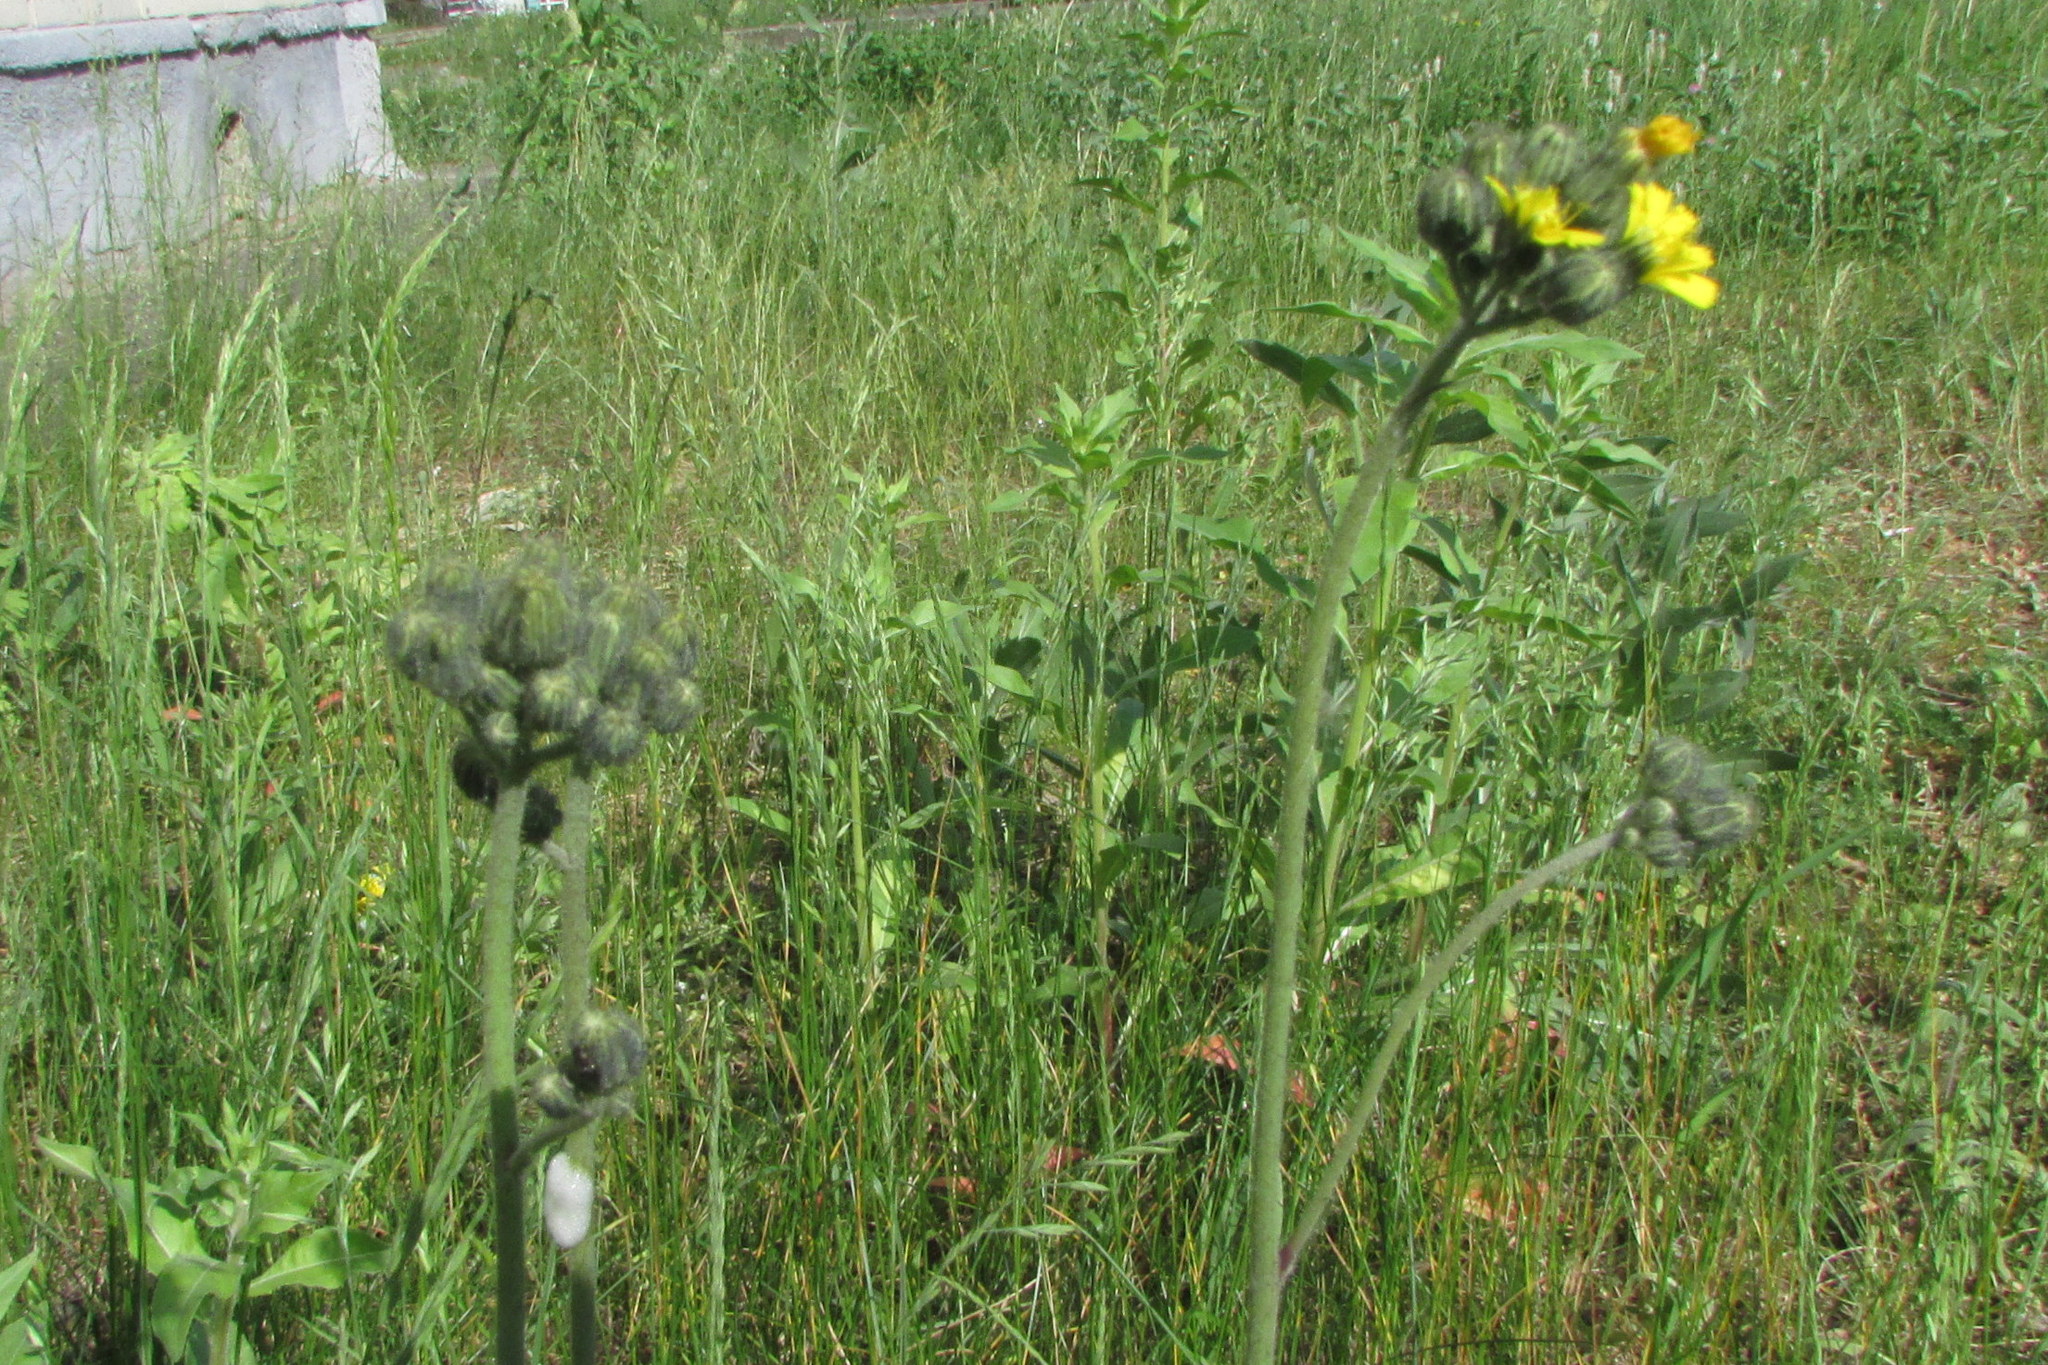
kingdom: Plantae
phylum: Tracheophyta
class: Magnoliopsida
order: Asterales
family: Asteraceae
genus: Pilosella
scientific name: Pilosella
